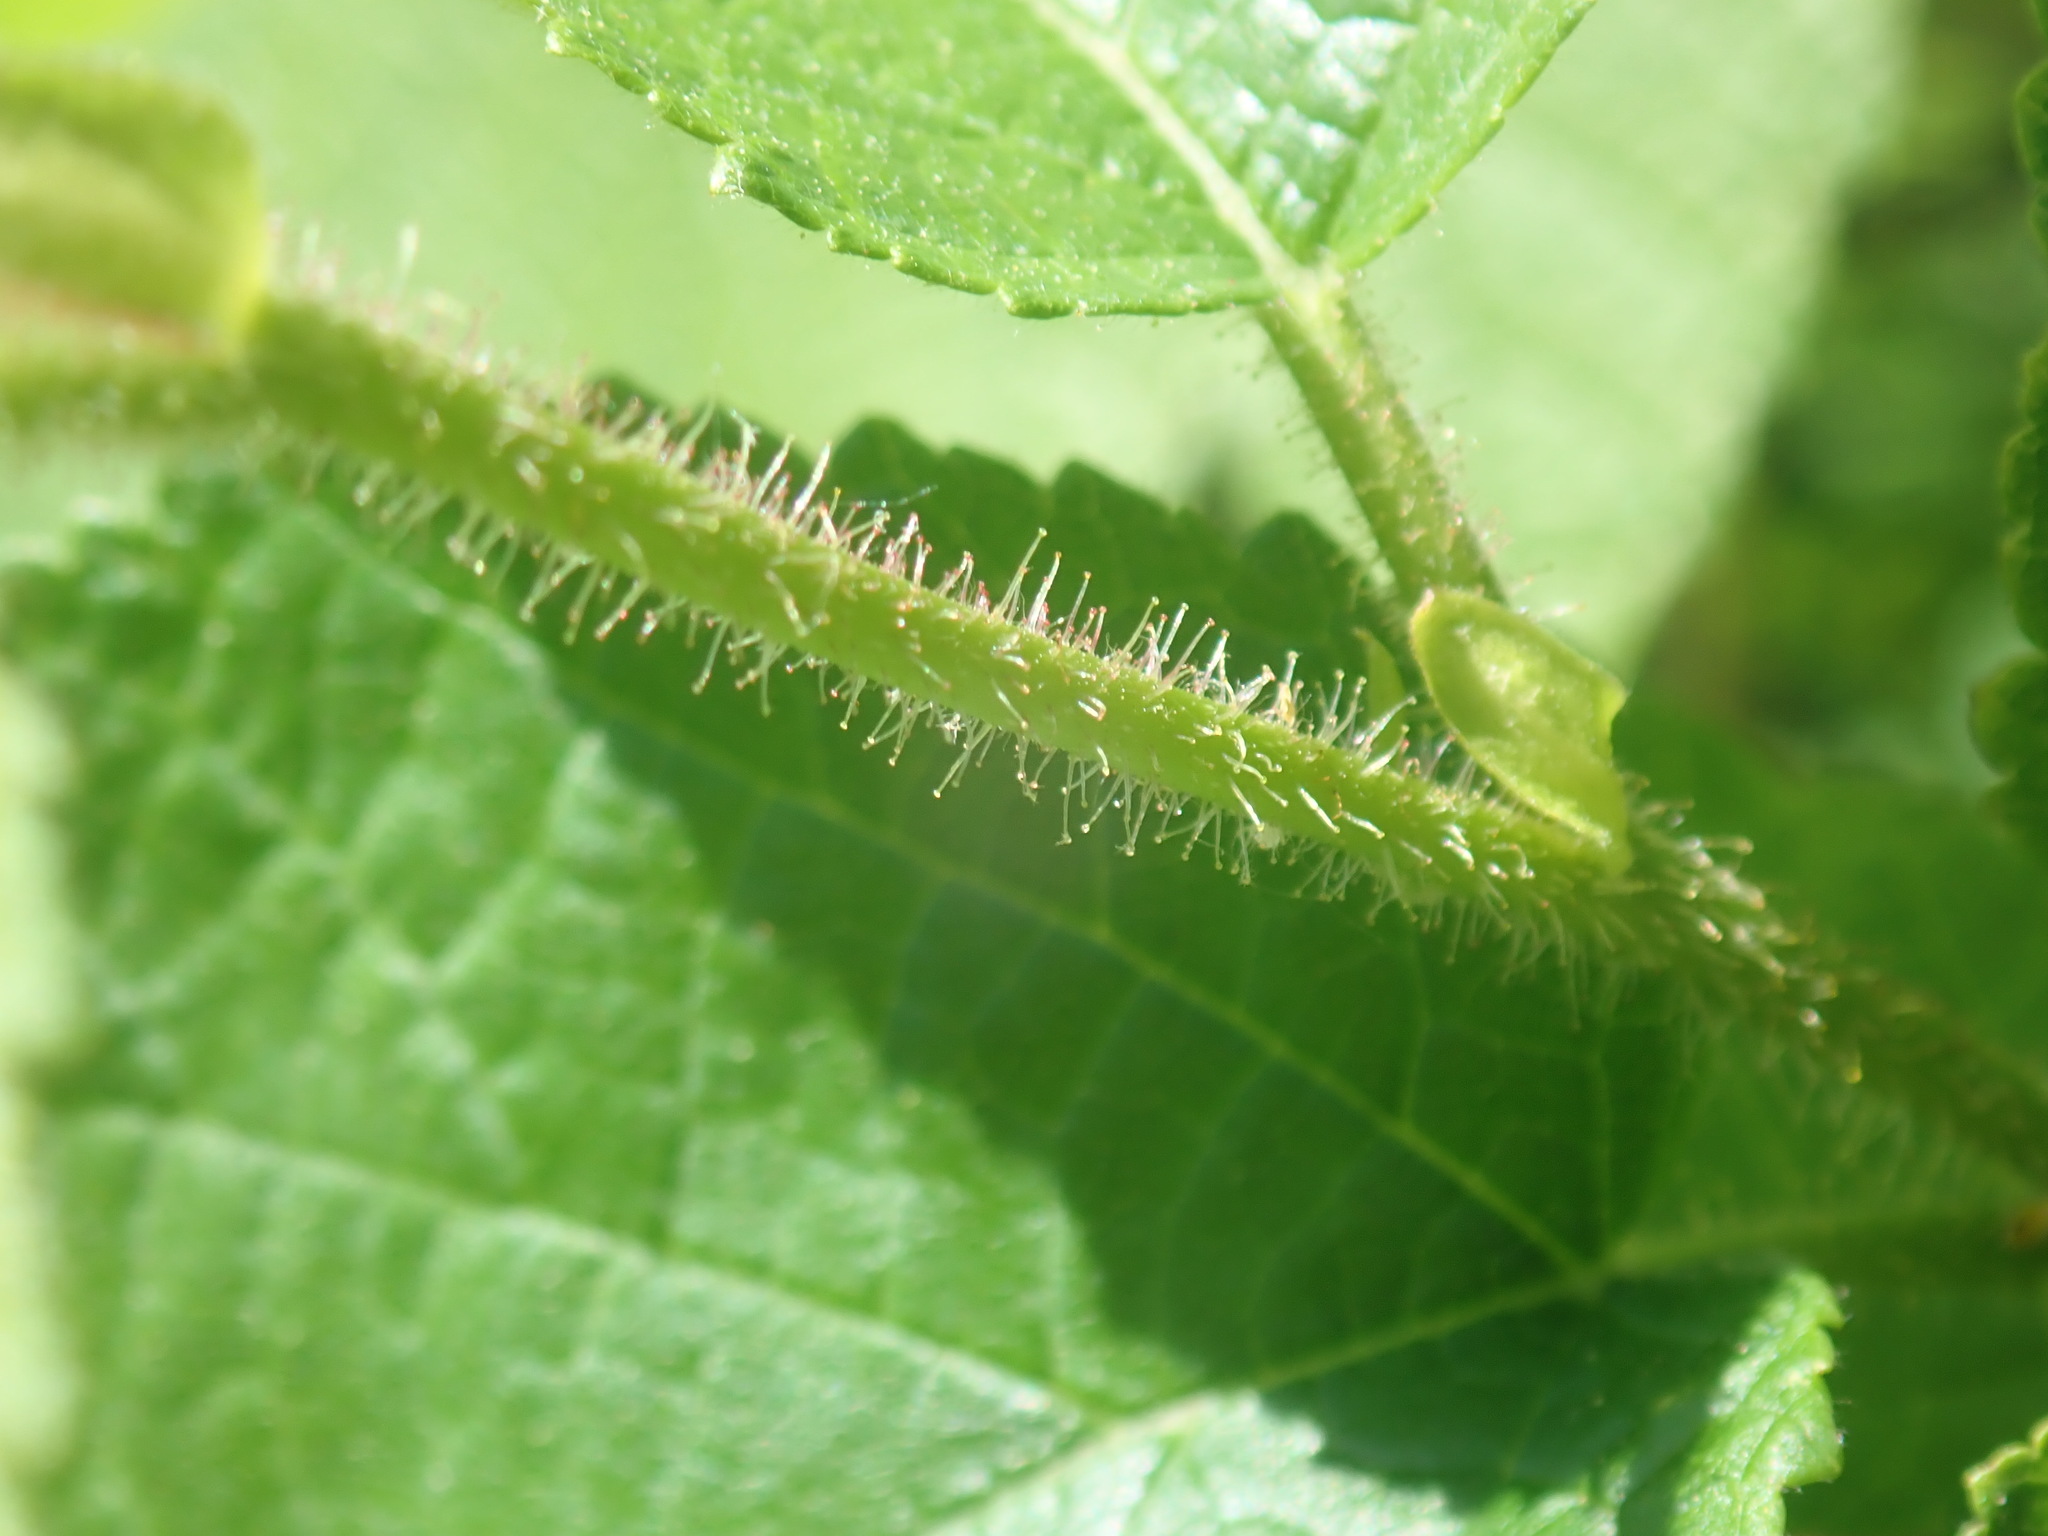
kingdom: Plantae
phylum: Tracheophyta
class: Magnoliopsida
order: Fagales
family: Betulaceae
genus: Corylus
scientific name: Corylus americana
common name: American hazel
